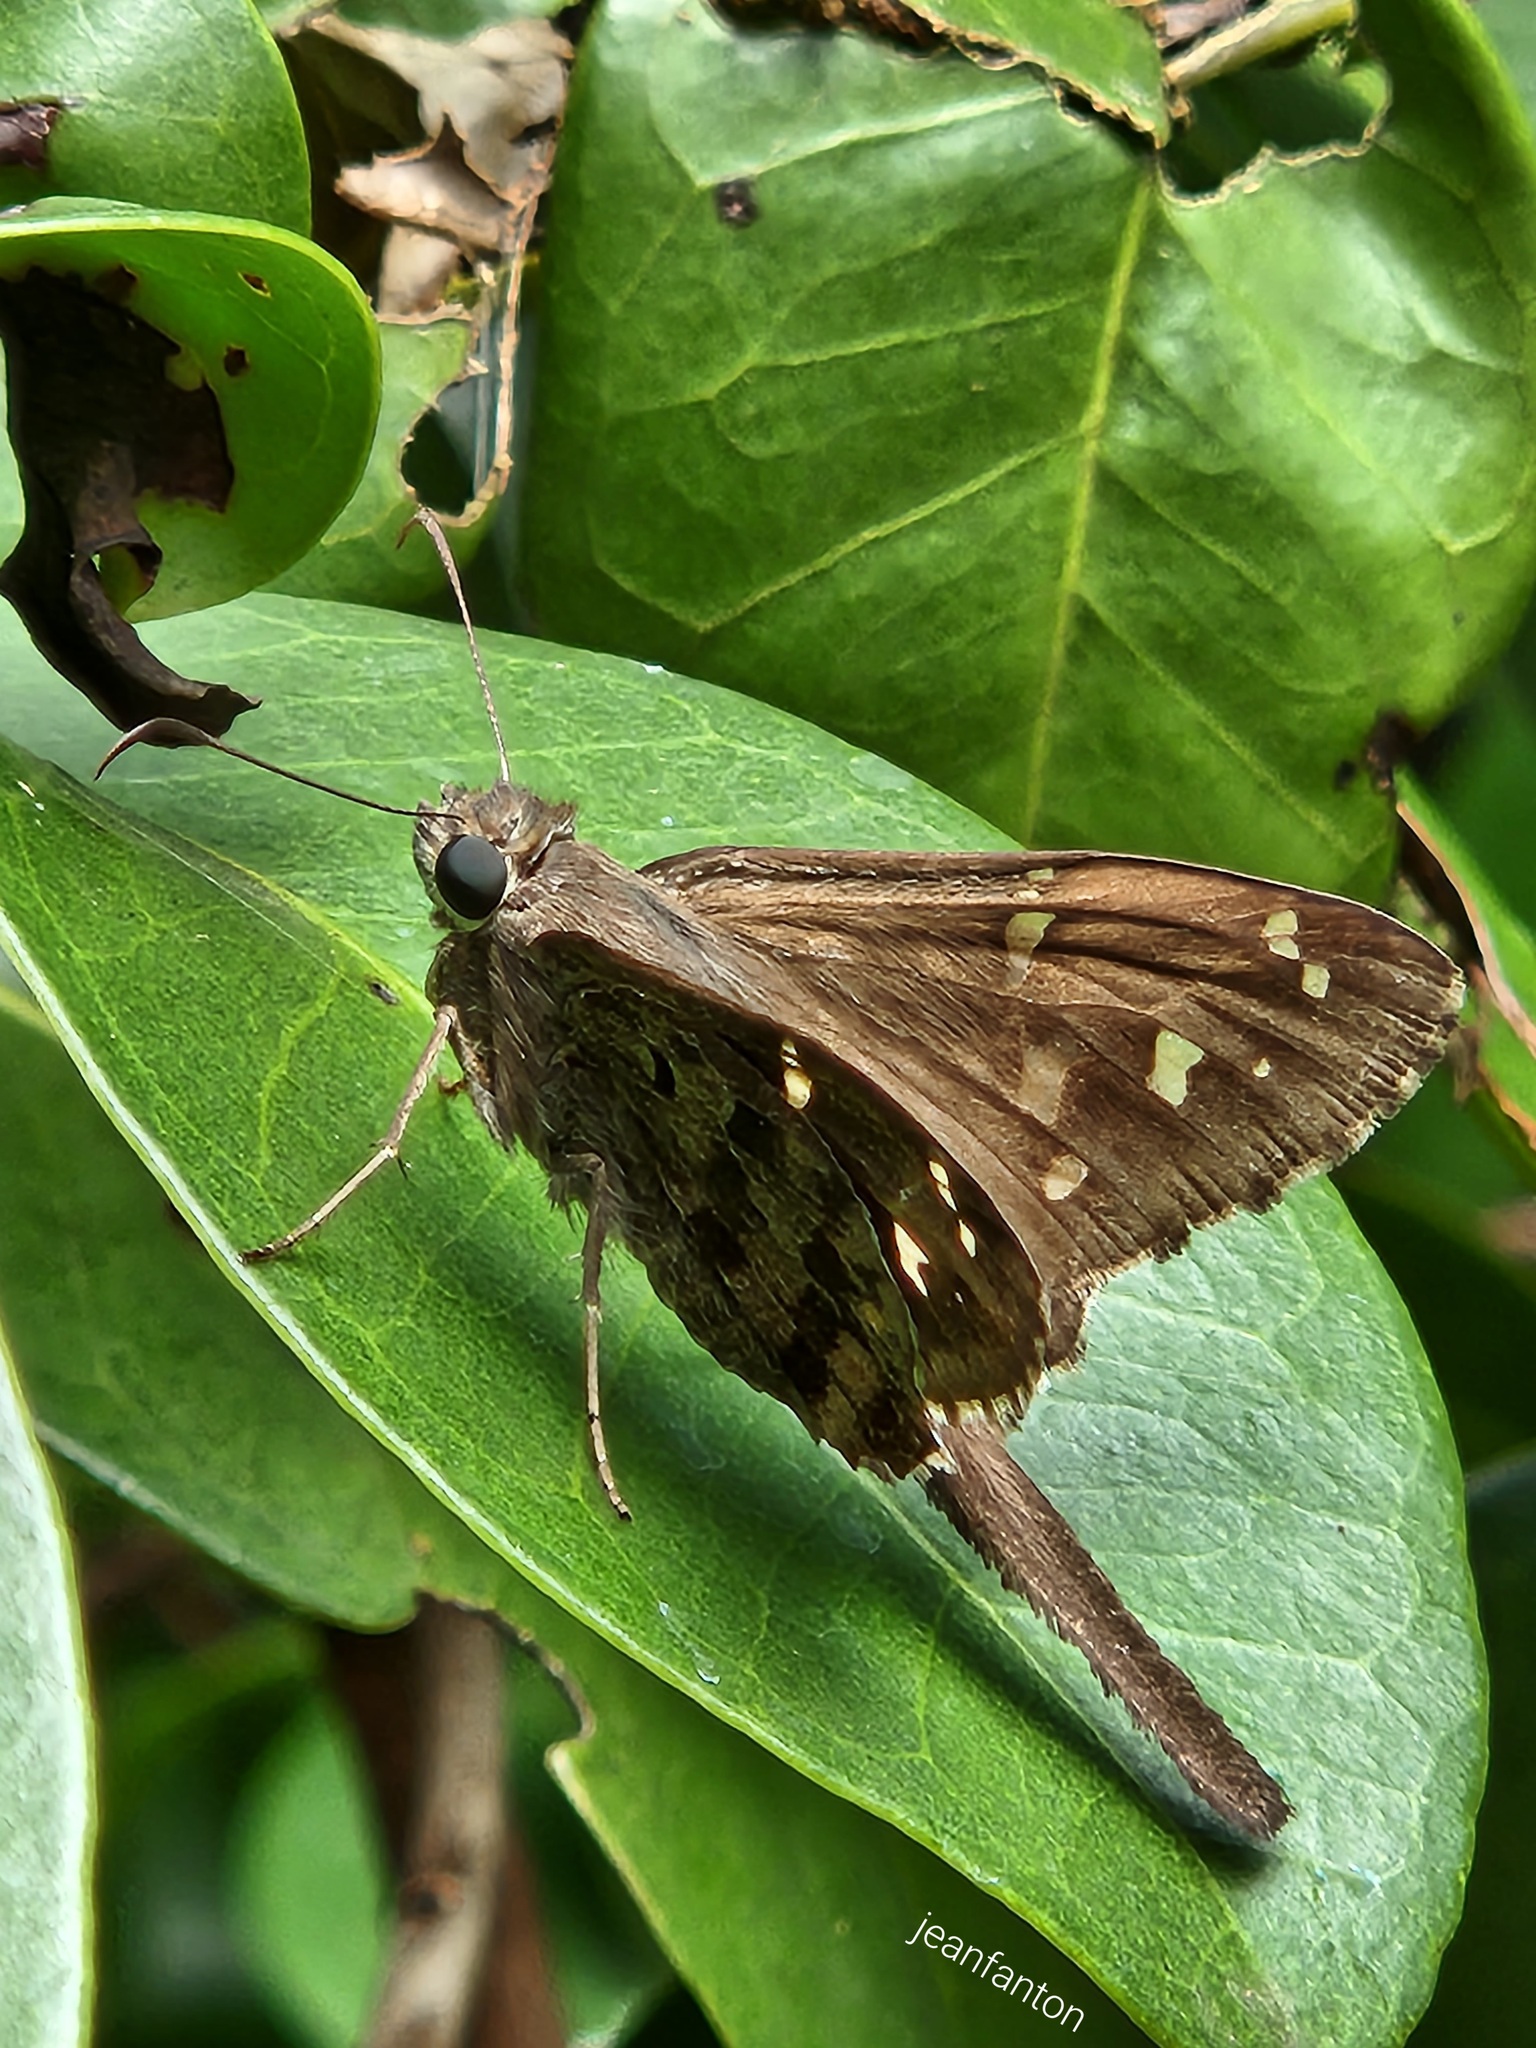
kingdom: Animalia
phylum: Arthropoda
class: Insecta
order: Lepidoptera
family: Hesperiidae
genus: Thorybes
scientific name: Thorybes
